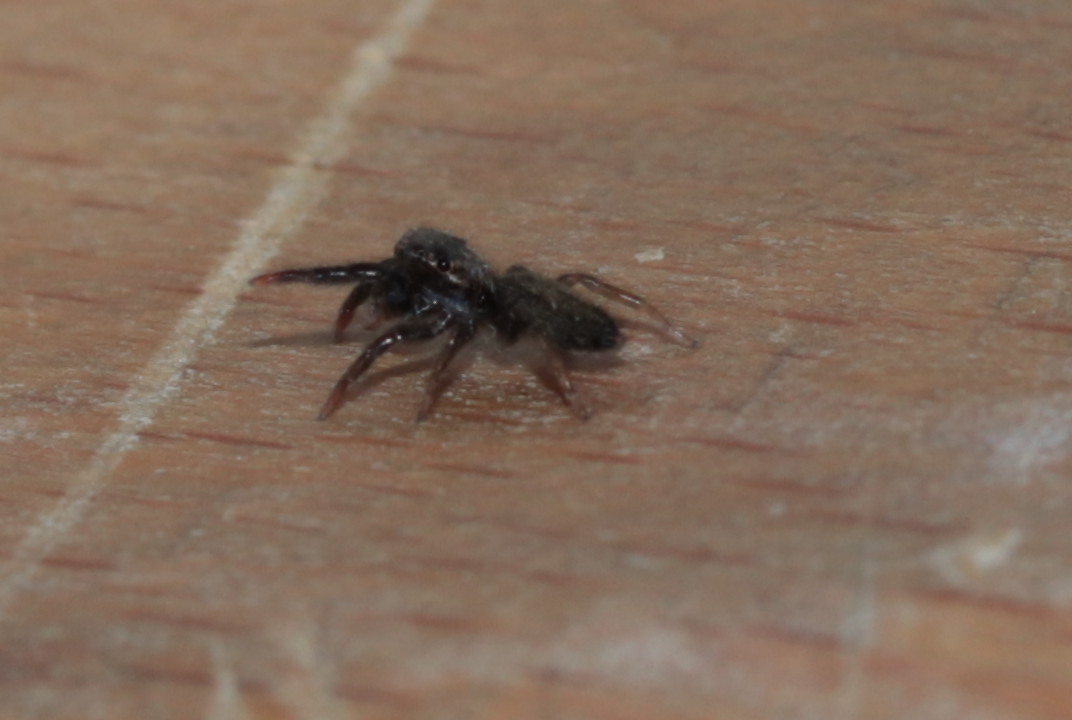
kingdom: Animalia
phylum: Arthropoda
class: Arachnida
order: Araneae
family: Salticidae
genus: Trite
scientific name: Trite auricoma
